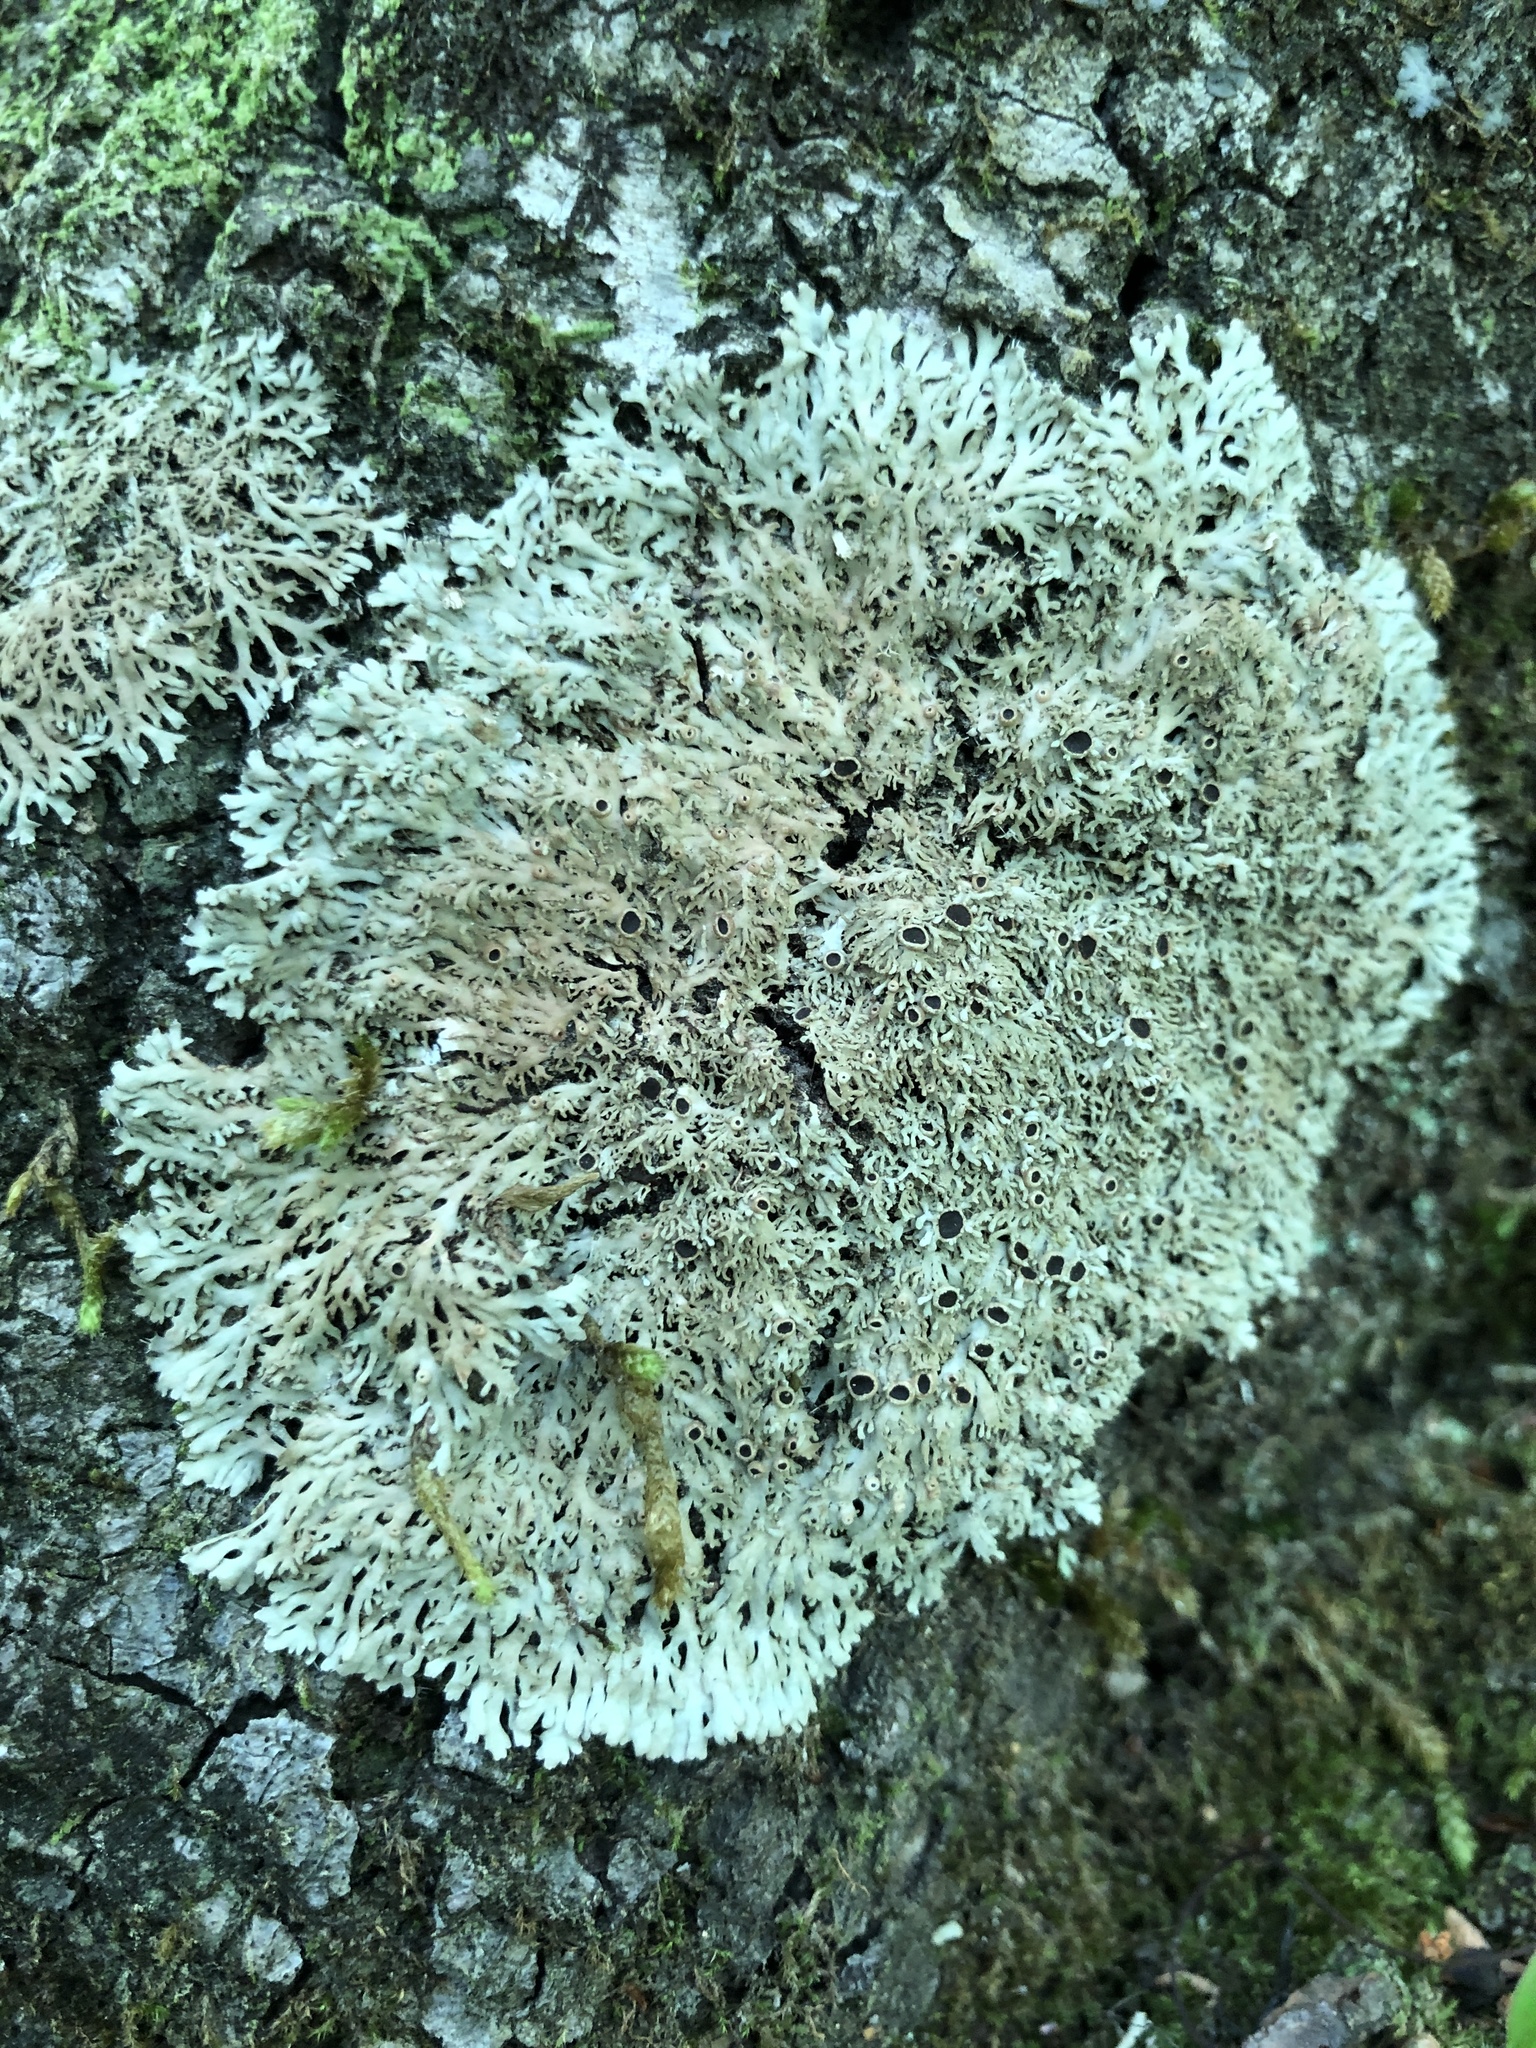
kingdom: Fungi
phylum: Ascomycota
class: Lecanoromycetes
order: Caliciales
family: Physciaceae
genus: Kurokawia
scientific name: Kurokawia palmulata
